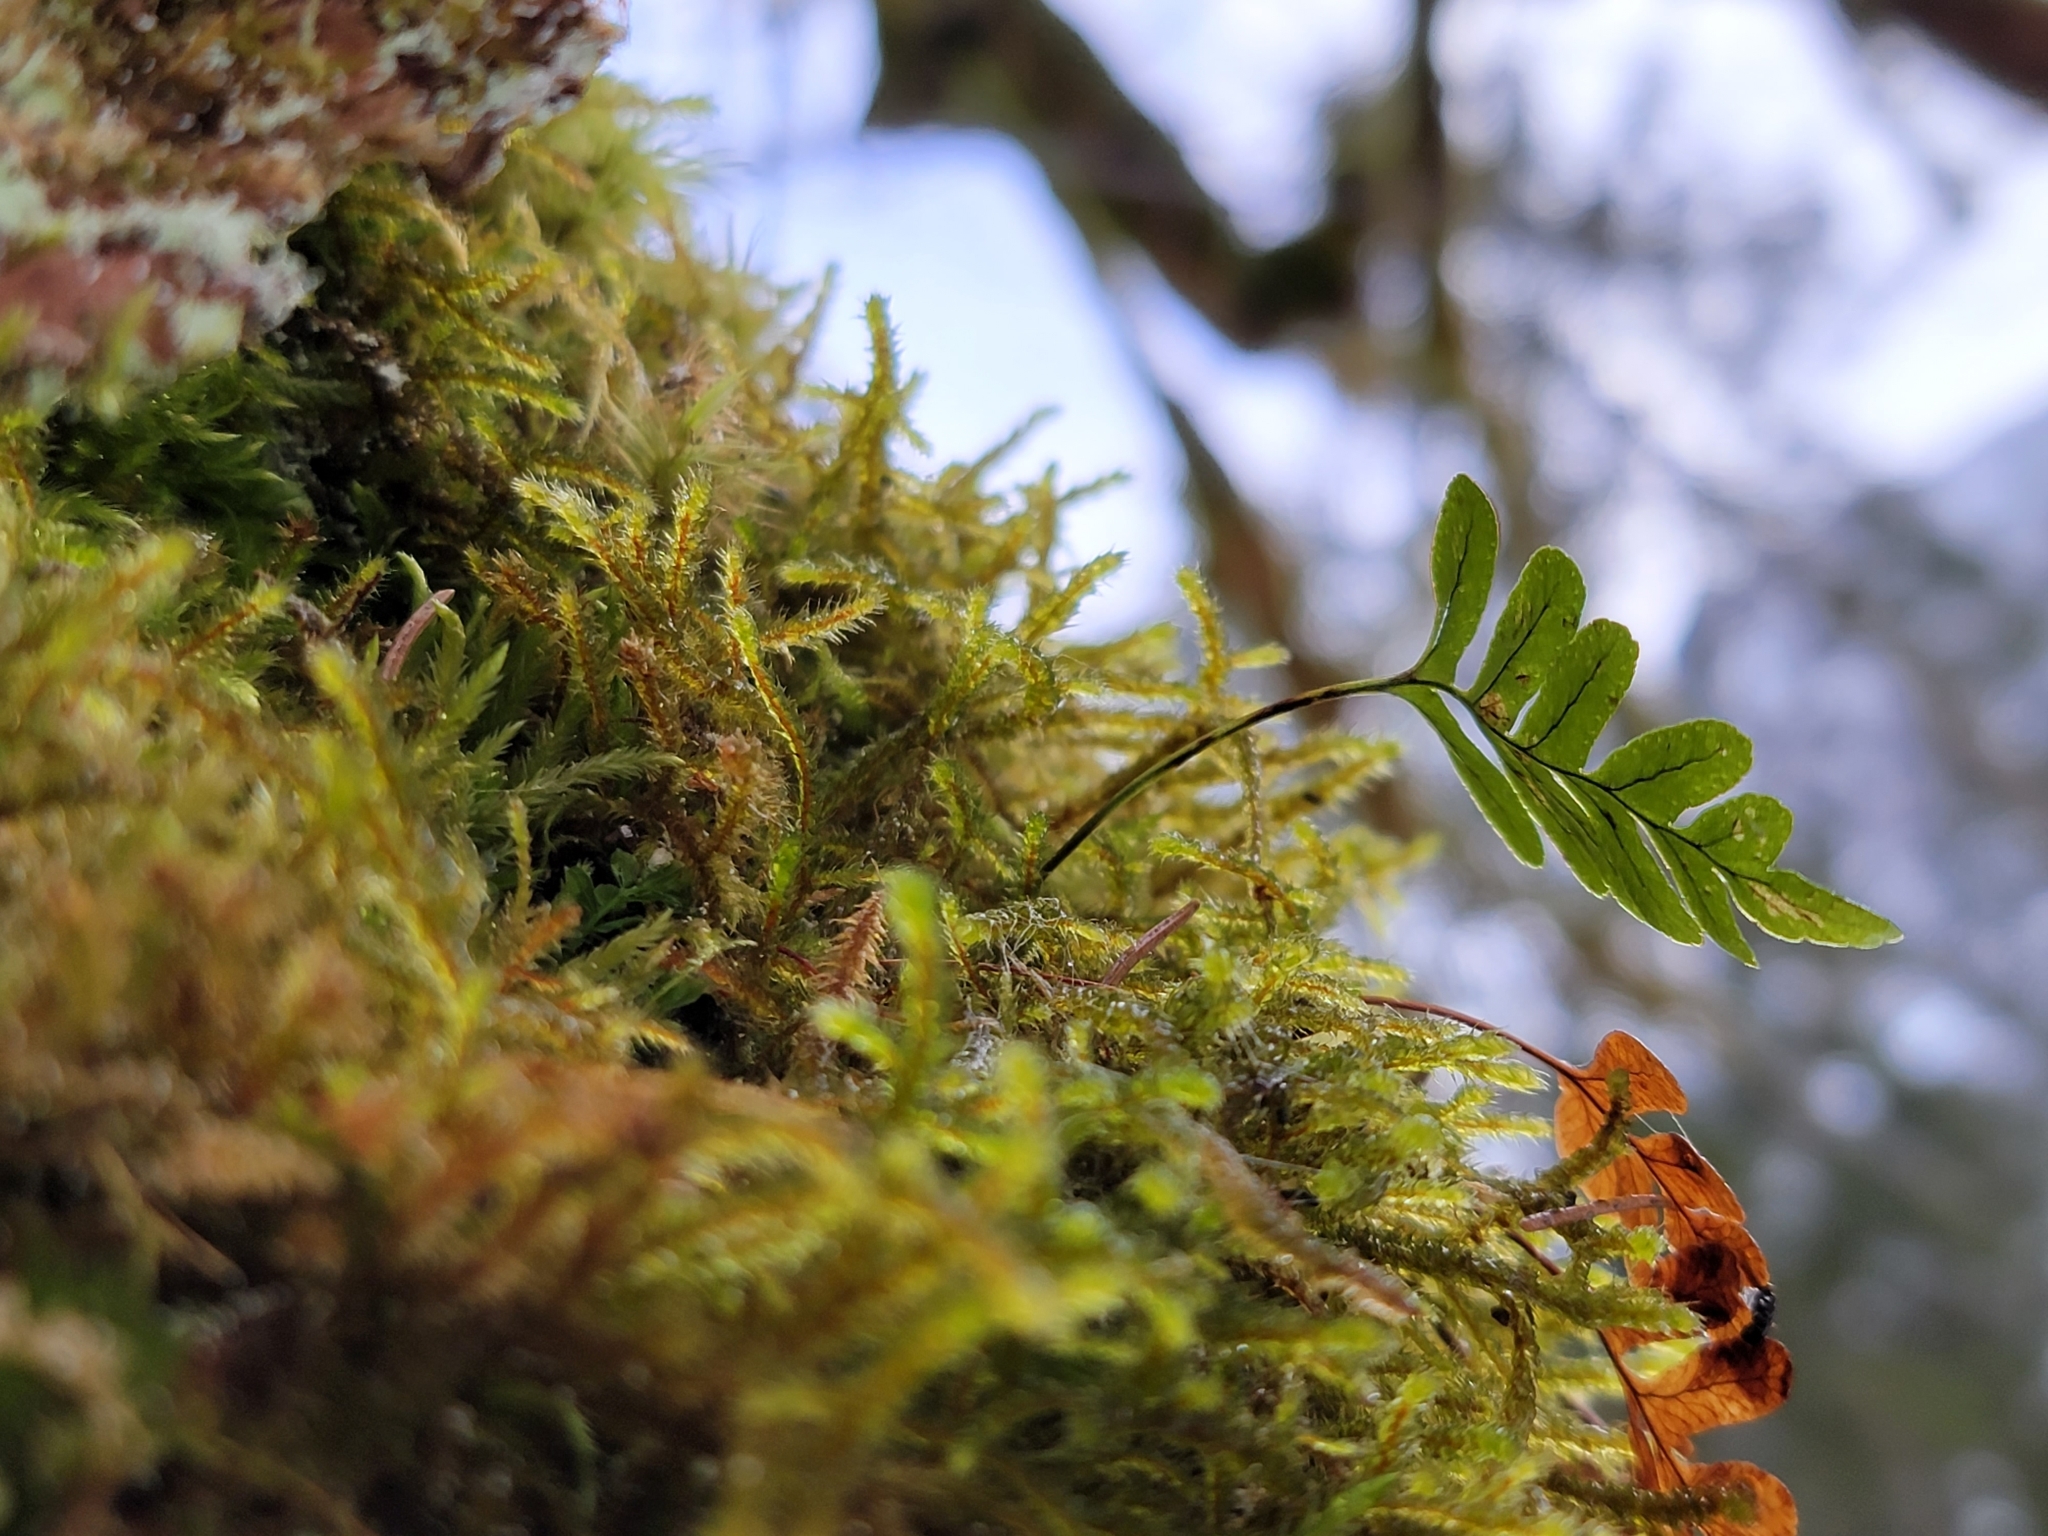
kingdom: Plantae
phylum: Tracheophyta
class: Polypodiopsida
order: Polypodiales
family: Polypodiaceae
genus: Polypodium
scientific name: Polypodium vulgare
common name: Common polypody
